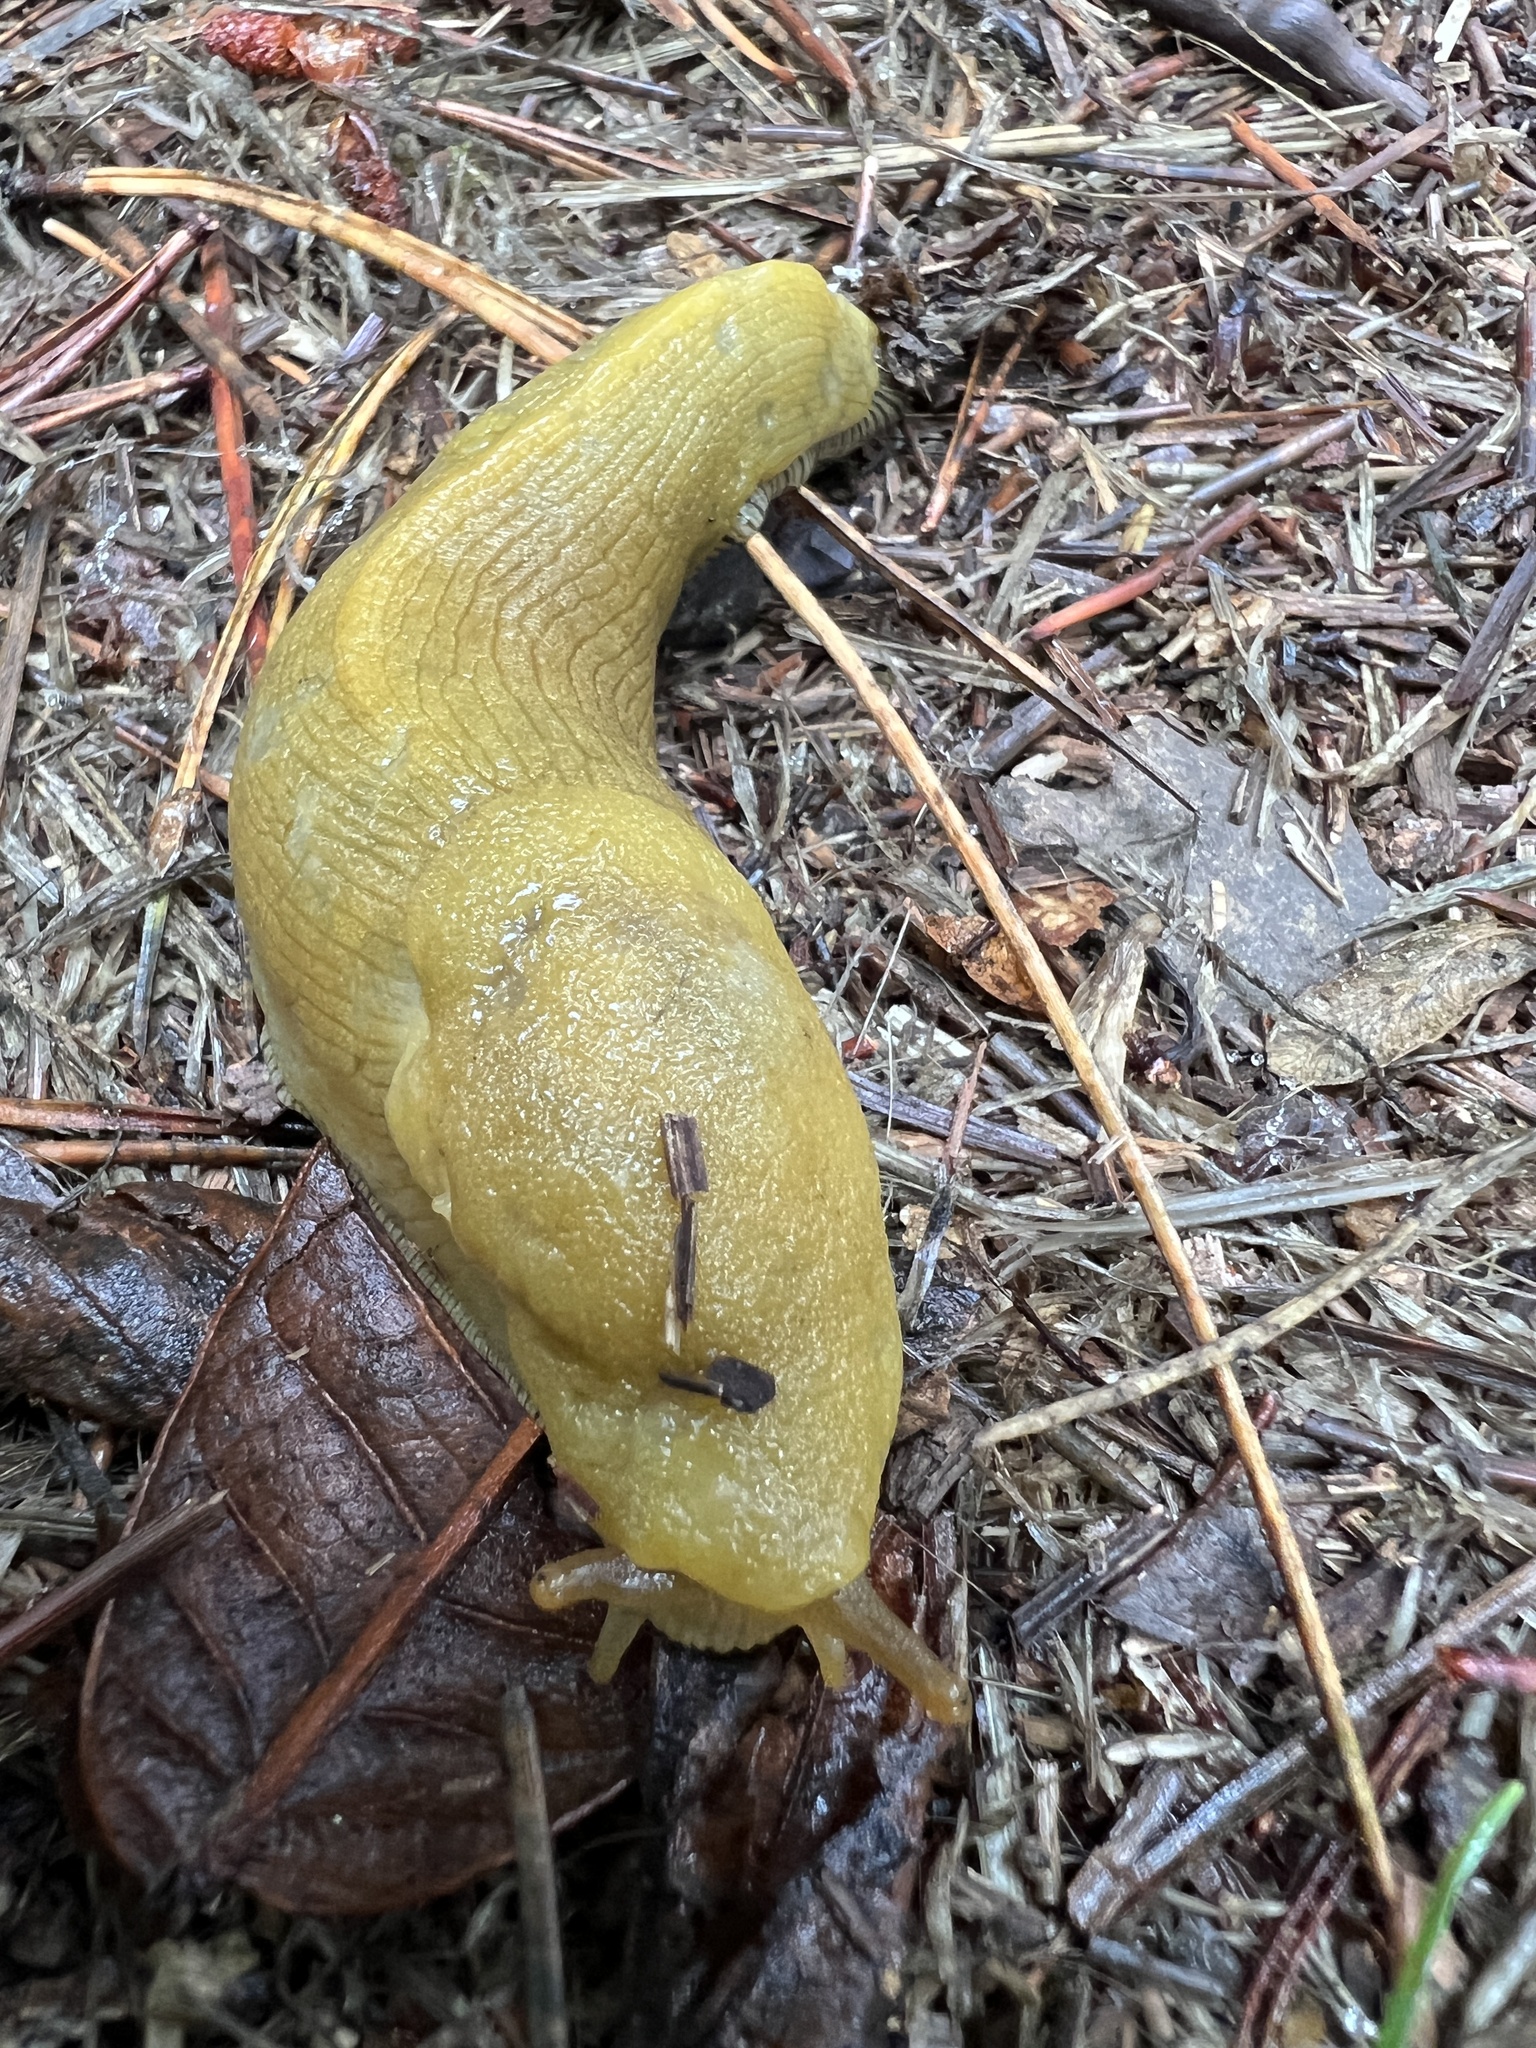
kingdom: Animalia
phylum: Mollusca
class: Gastropoda
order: Stylommatophora
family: Ariolimacidae
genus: Ariolimax
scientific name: Ariolimax buttoni
